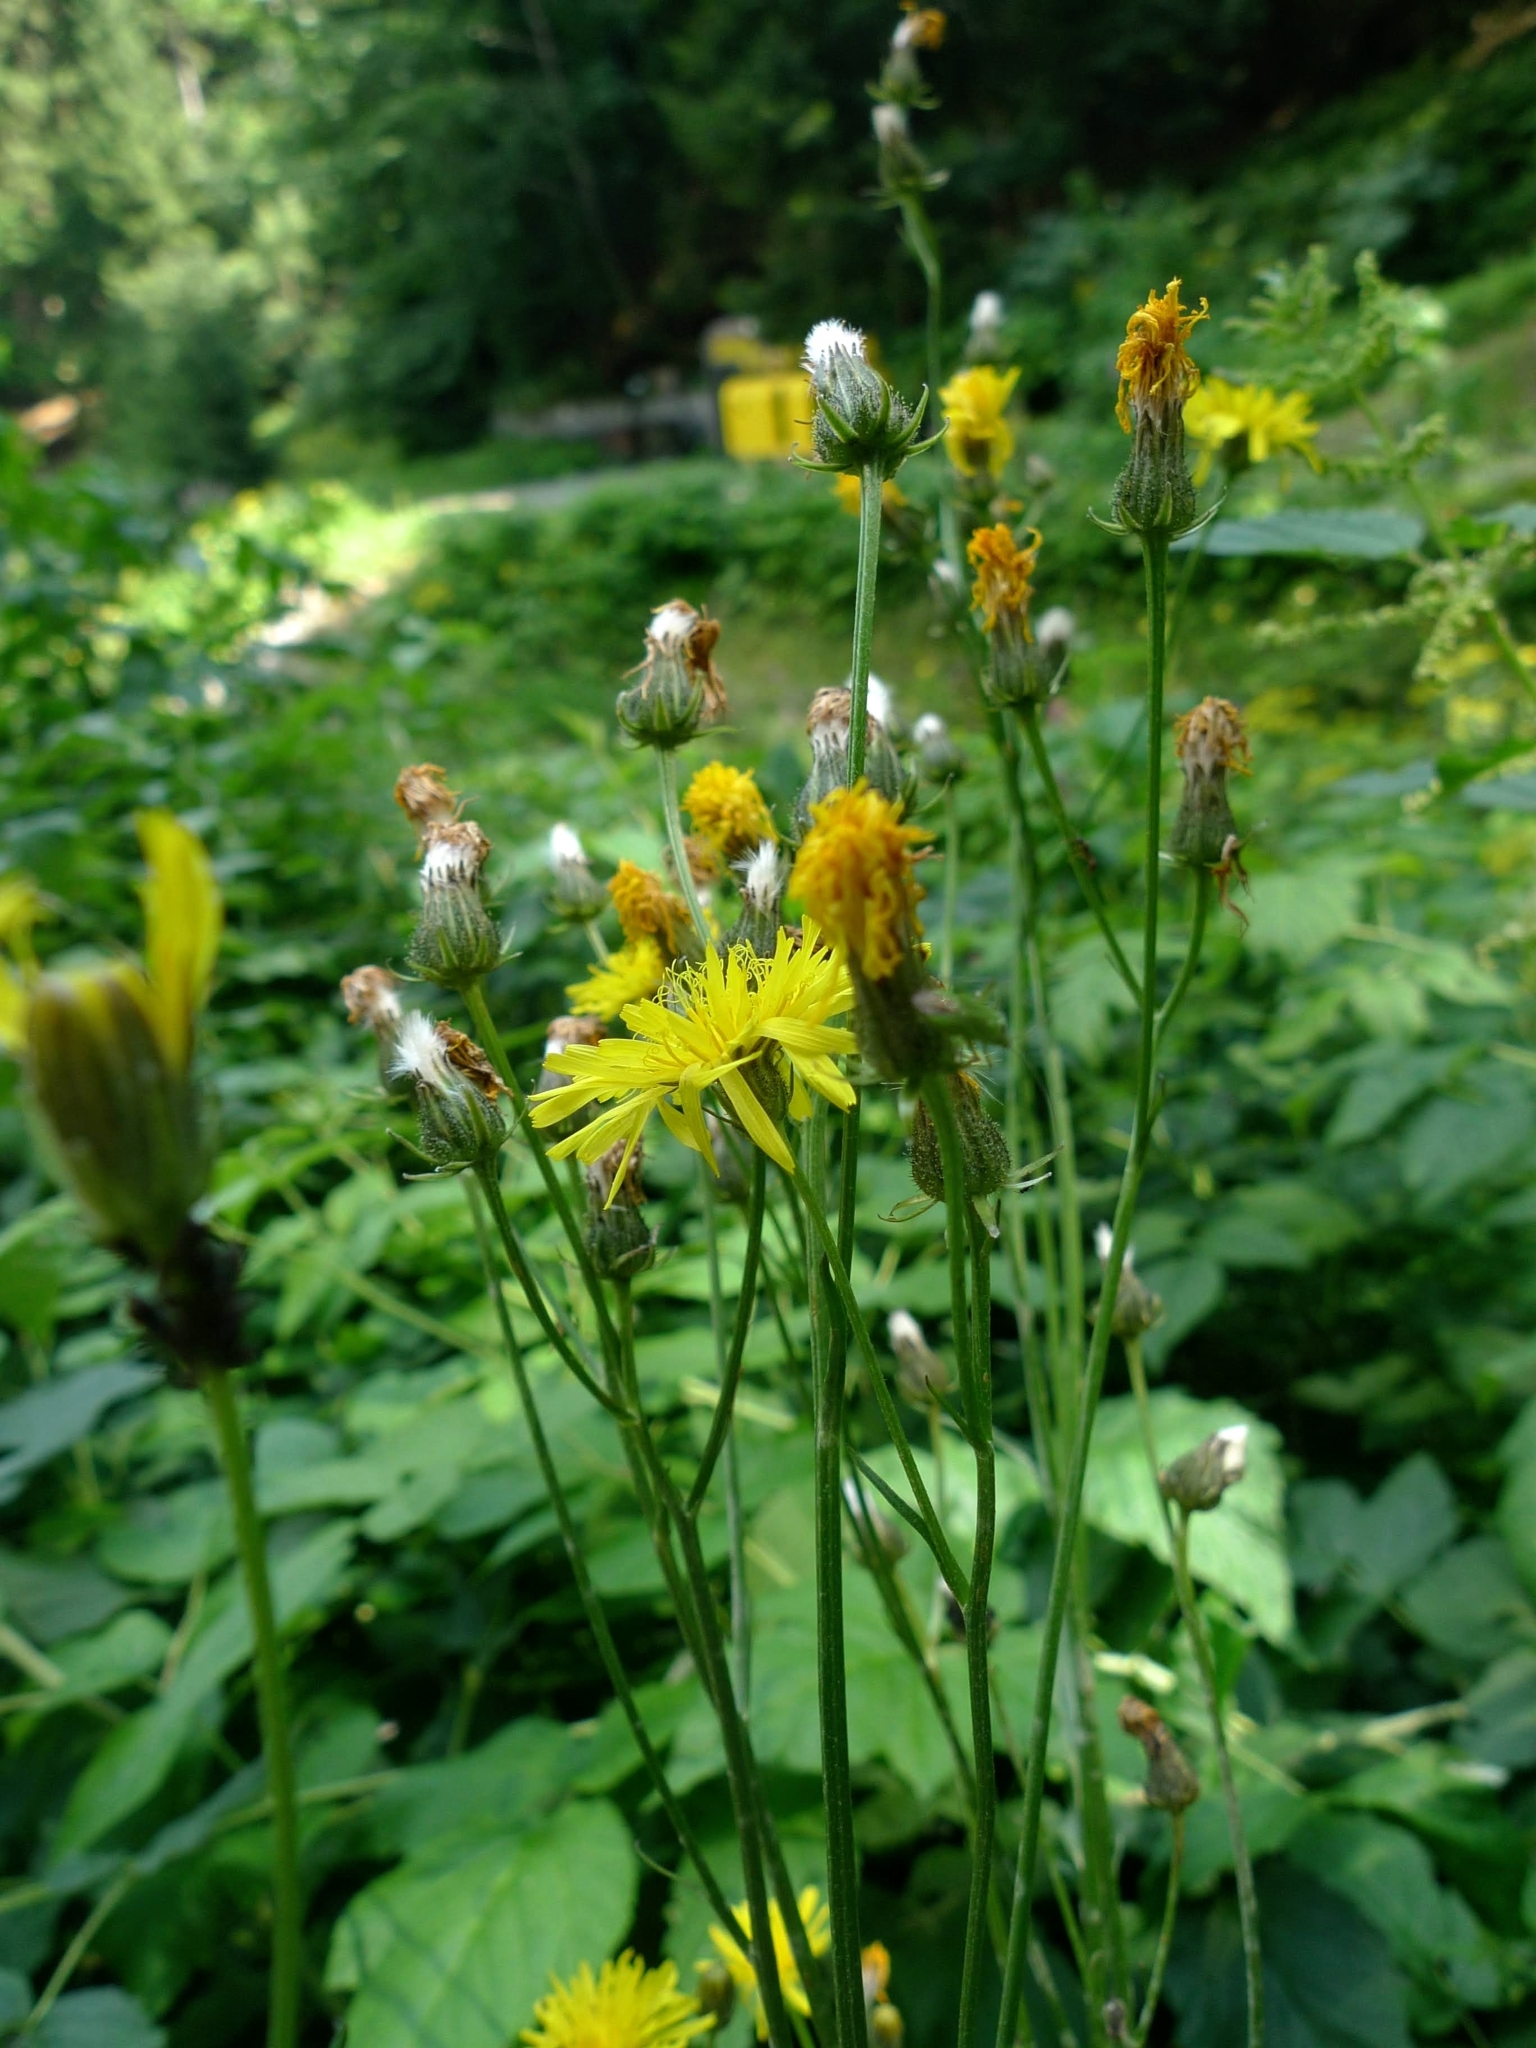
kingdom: Plantae
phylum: Tracheophyta
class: Magnoliopsida
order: Asterales
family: Asteraceae
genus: Crepis
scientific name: Crepis biennis
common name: Rough hawk's-beard
